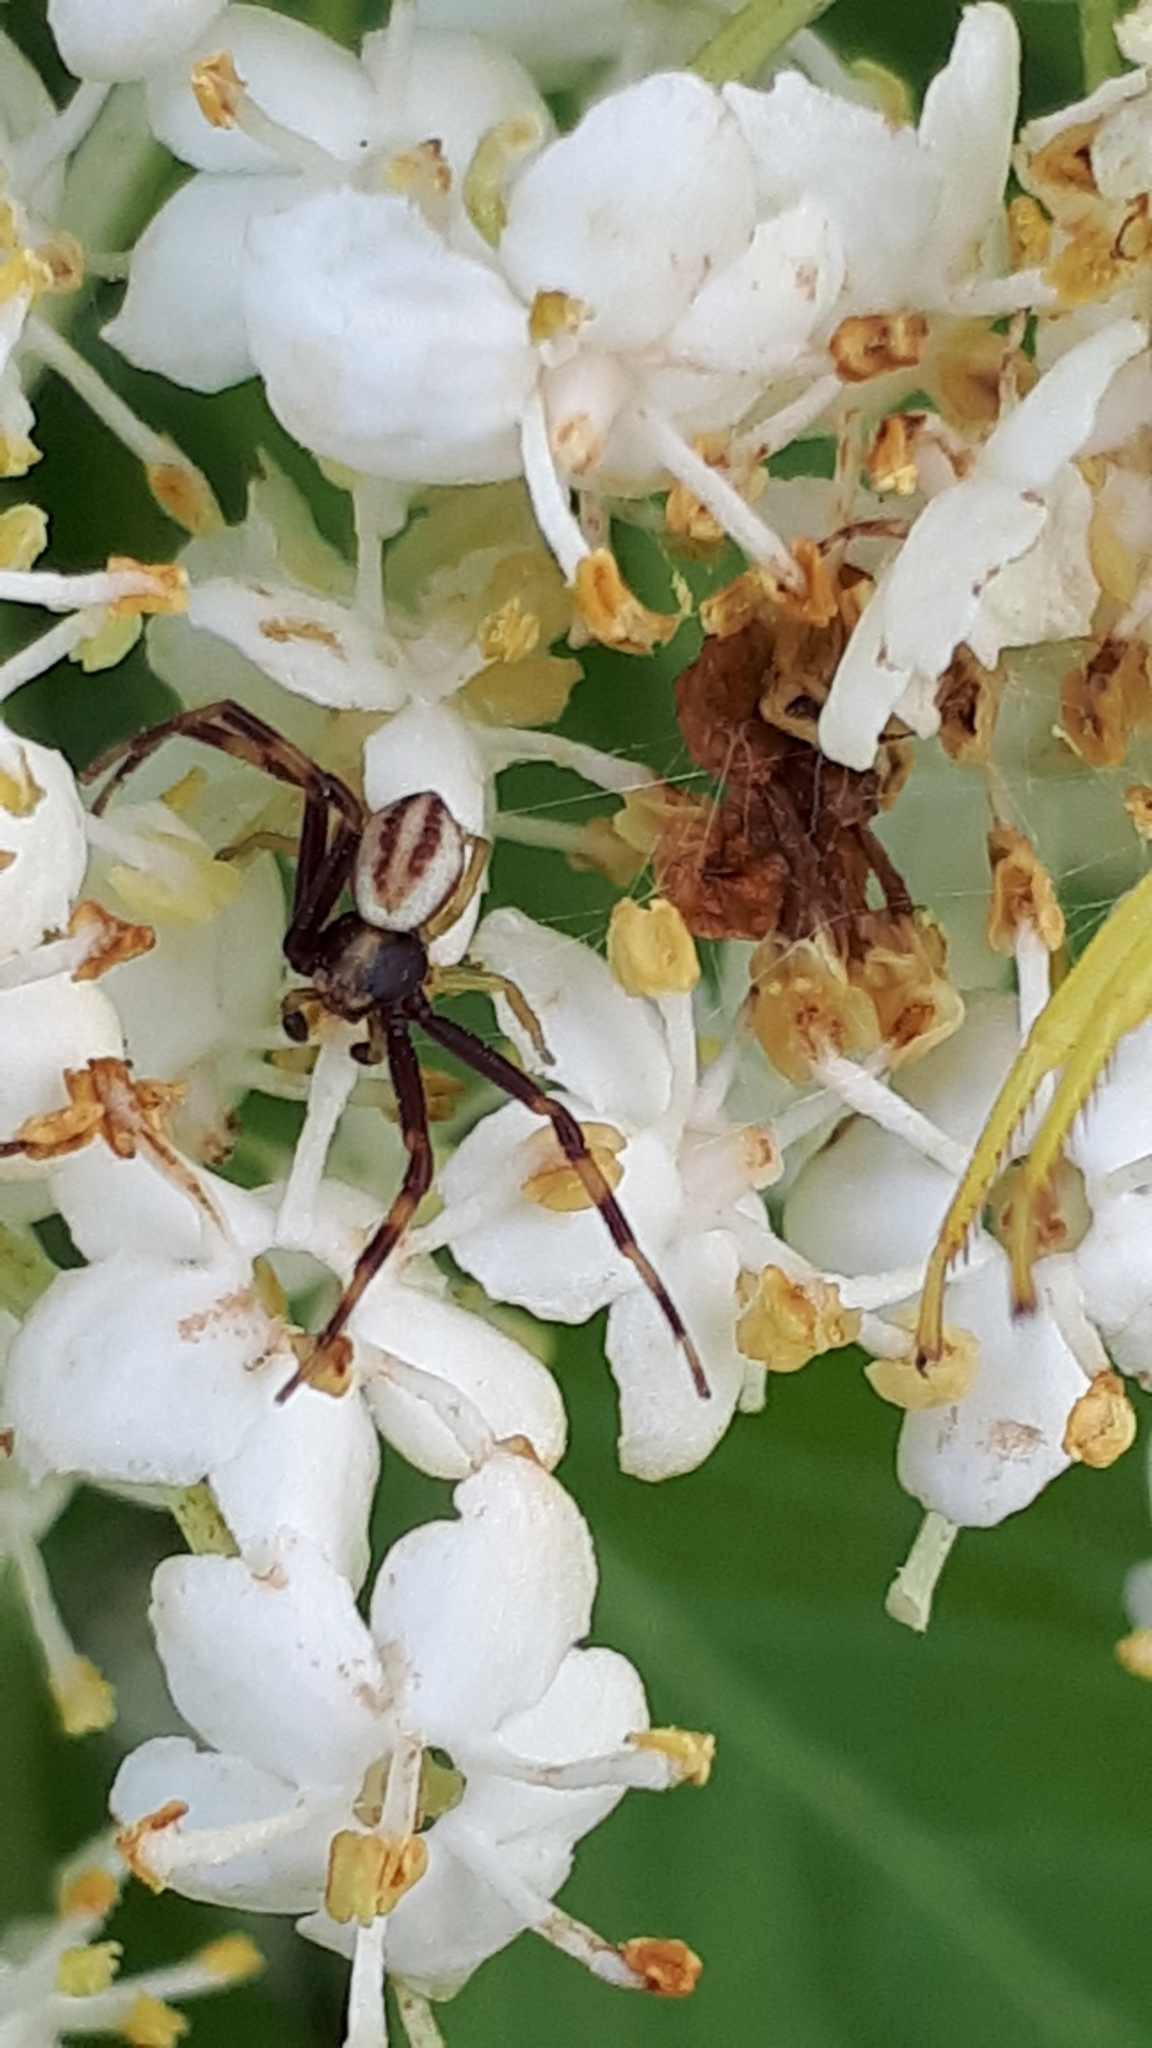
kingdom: Animalia
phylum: Arthropoda
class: Arachnida
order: Araneae
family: Thomisidae
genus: Misumena
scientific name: Misumena vatia
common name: Goldenrod crab spider
